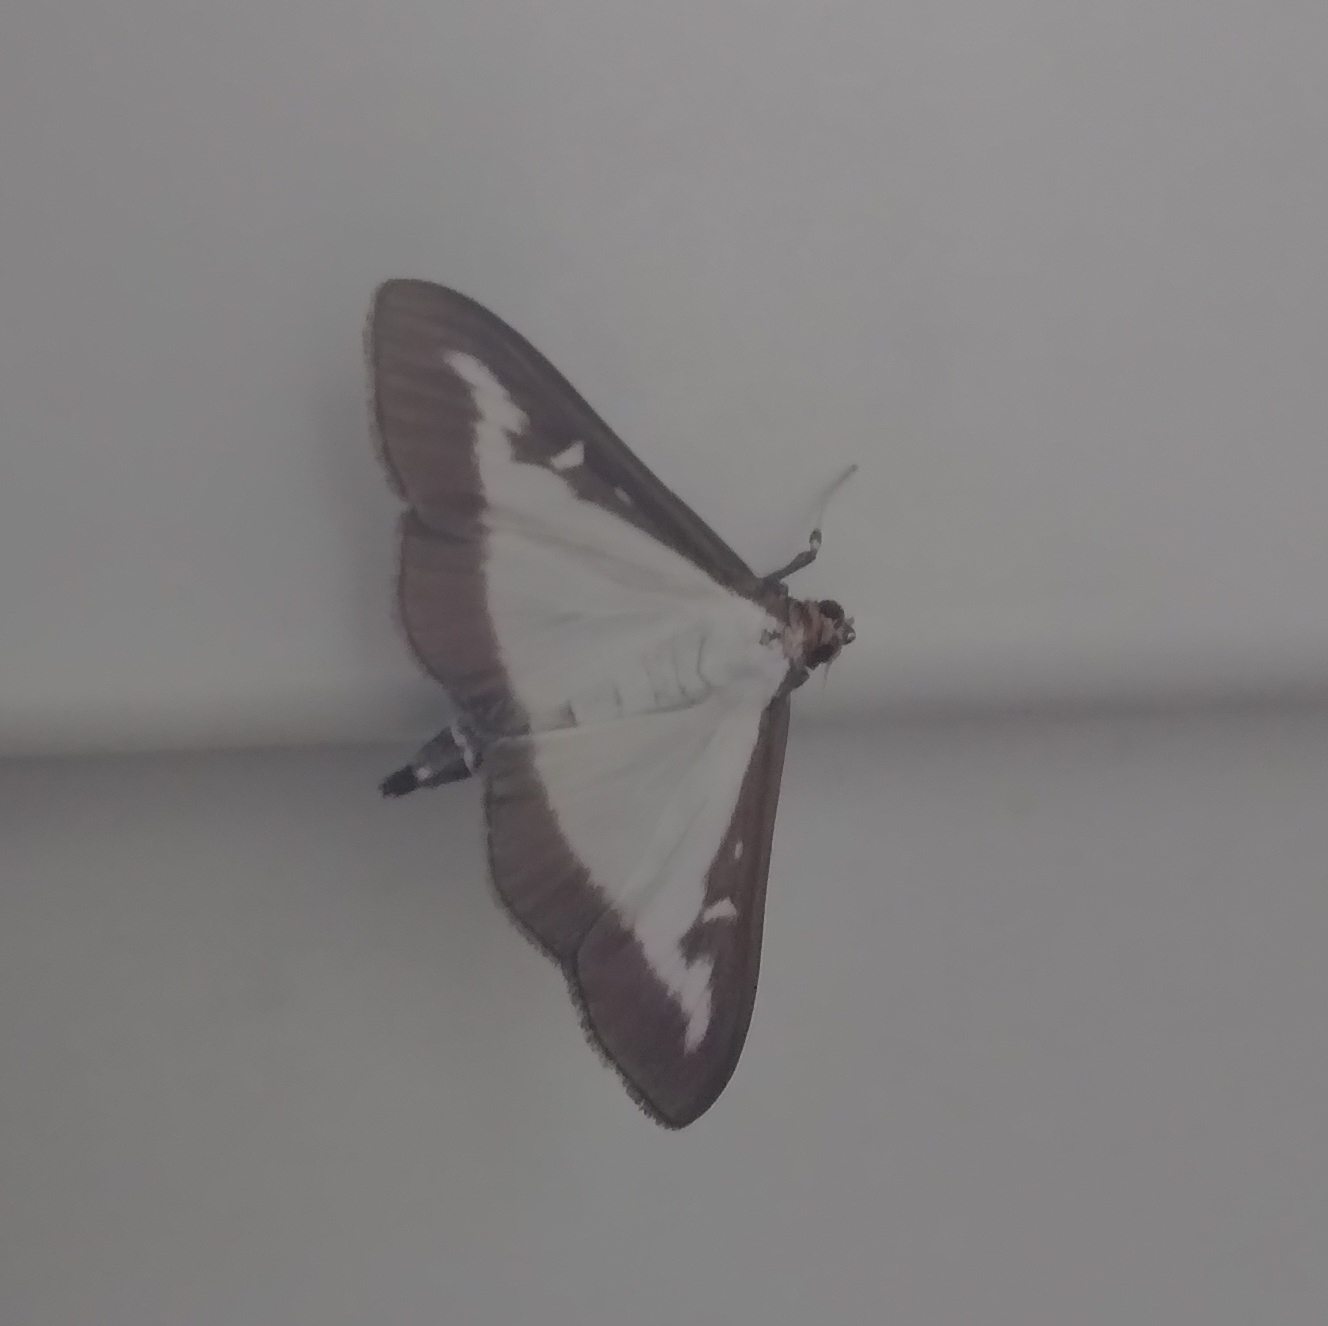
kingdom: Animalia
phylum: Arthropoda
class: Insecta
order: Lepidoptera
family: Crambidae
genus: Cydalima
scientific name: Cydalima perspectalis
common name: Box tree moth
